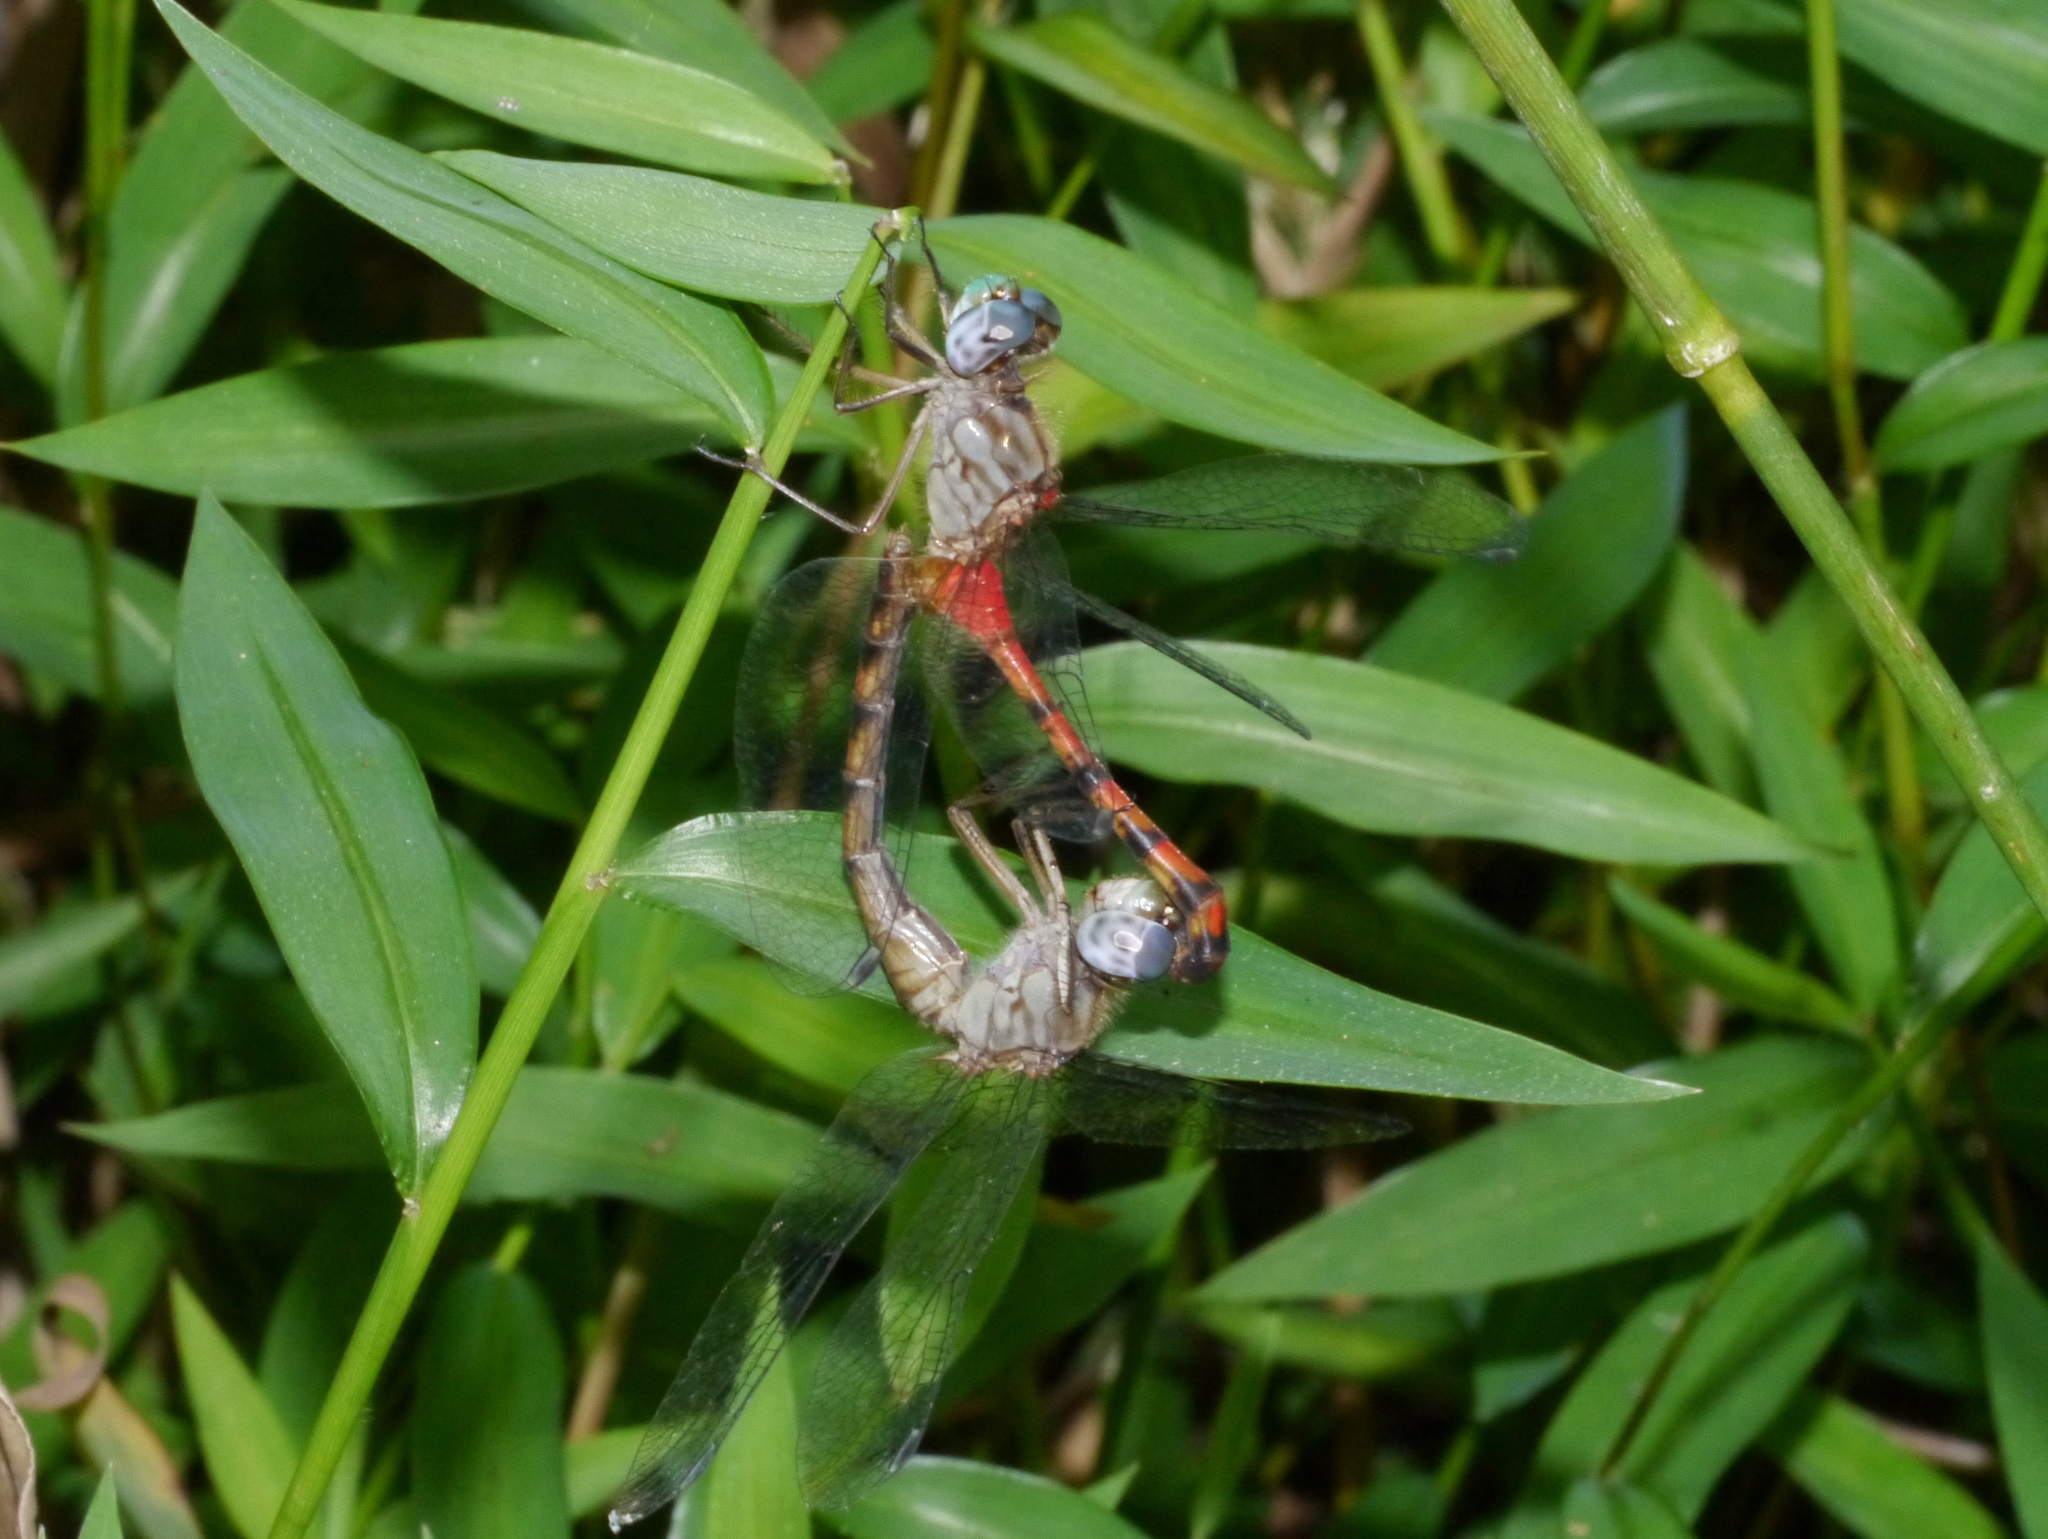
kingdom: Animalia
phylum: Arthropoda
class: Insecta
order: Odonata
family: Libellulidae
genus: Sympetrum
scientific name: Sympetrum ambiguum
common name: Blue-faced meadowhawk
